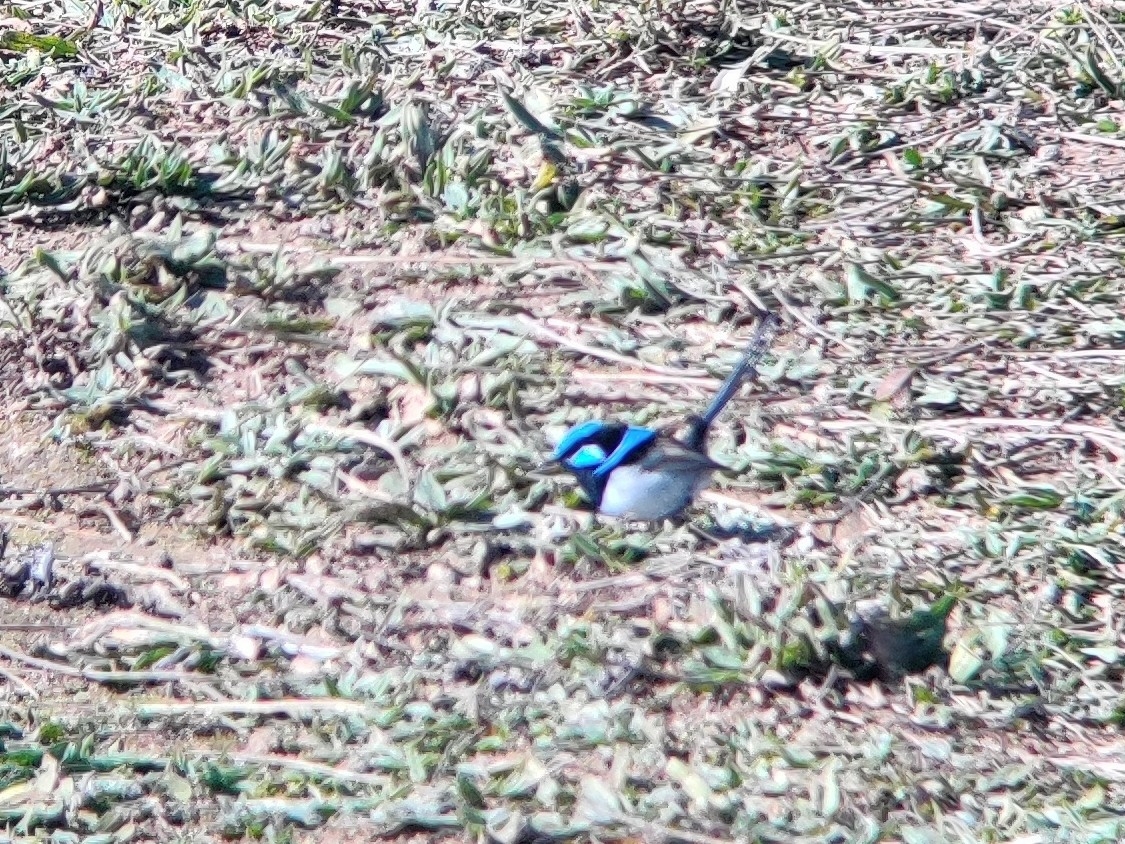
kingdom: Animalia
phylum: Chordata
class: Aves
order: Passeriformes
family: Maluridae
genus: Malurus
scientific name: Malurus cyaneus
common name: Superb fairywren
